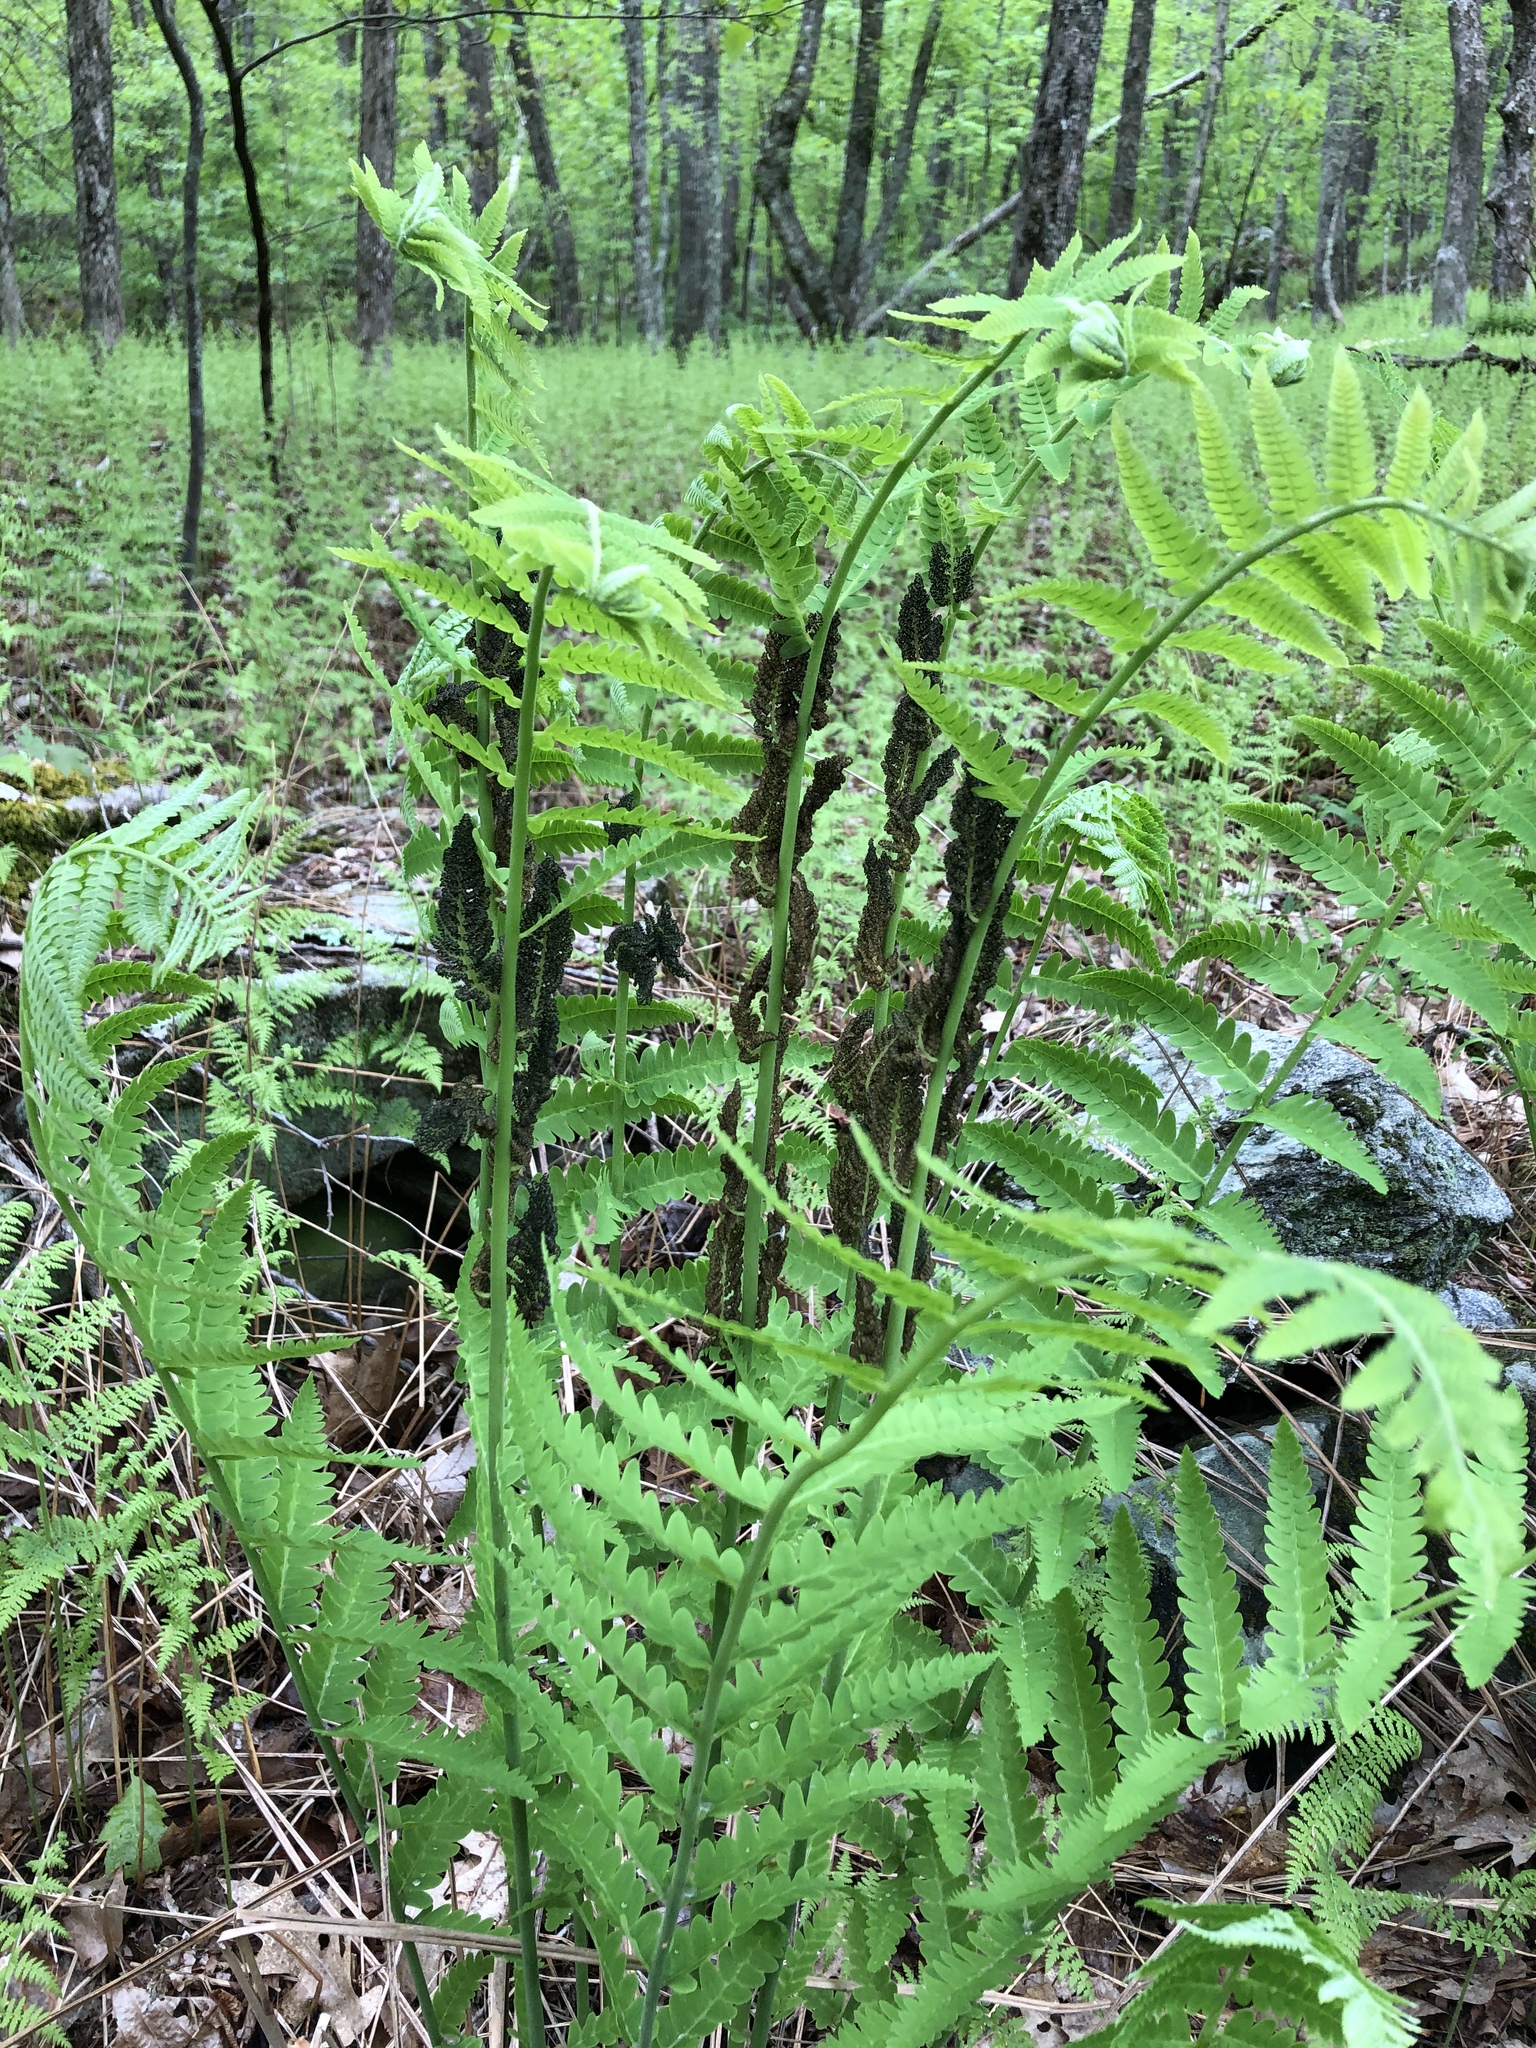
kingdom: Plantae
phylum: Tracheophyta
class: Polypodiopsida
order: Osmundales
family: Osmundaceae
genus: Claytosmunda
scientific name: Claytosmunda claytoniana
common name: Clayton's fern
